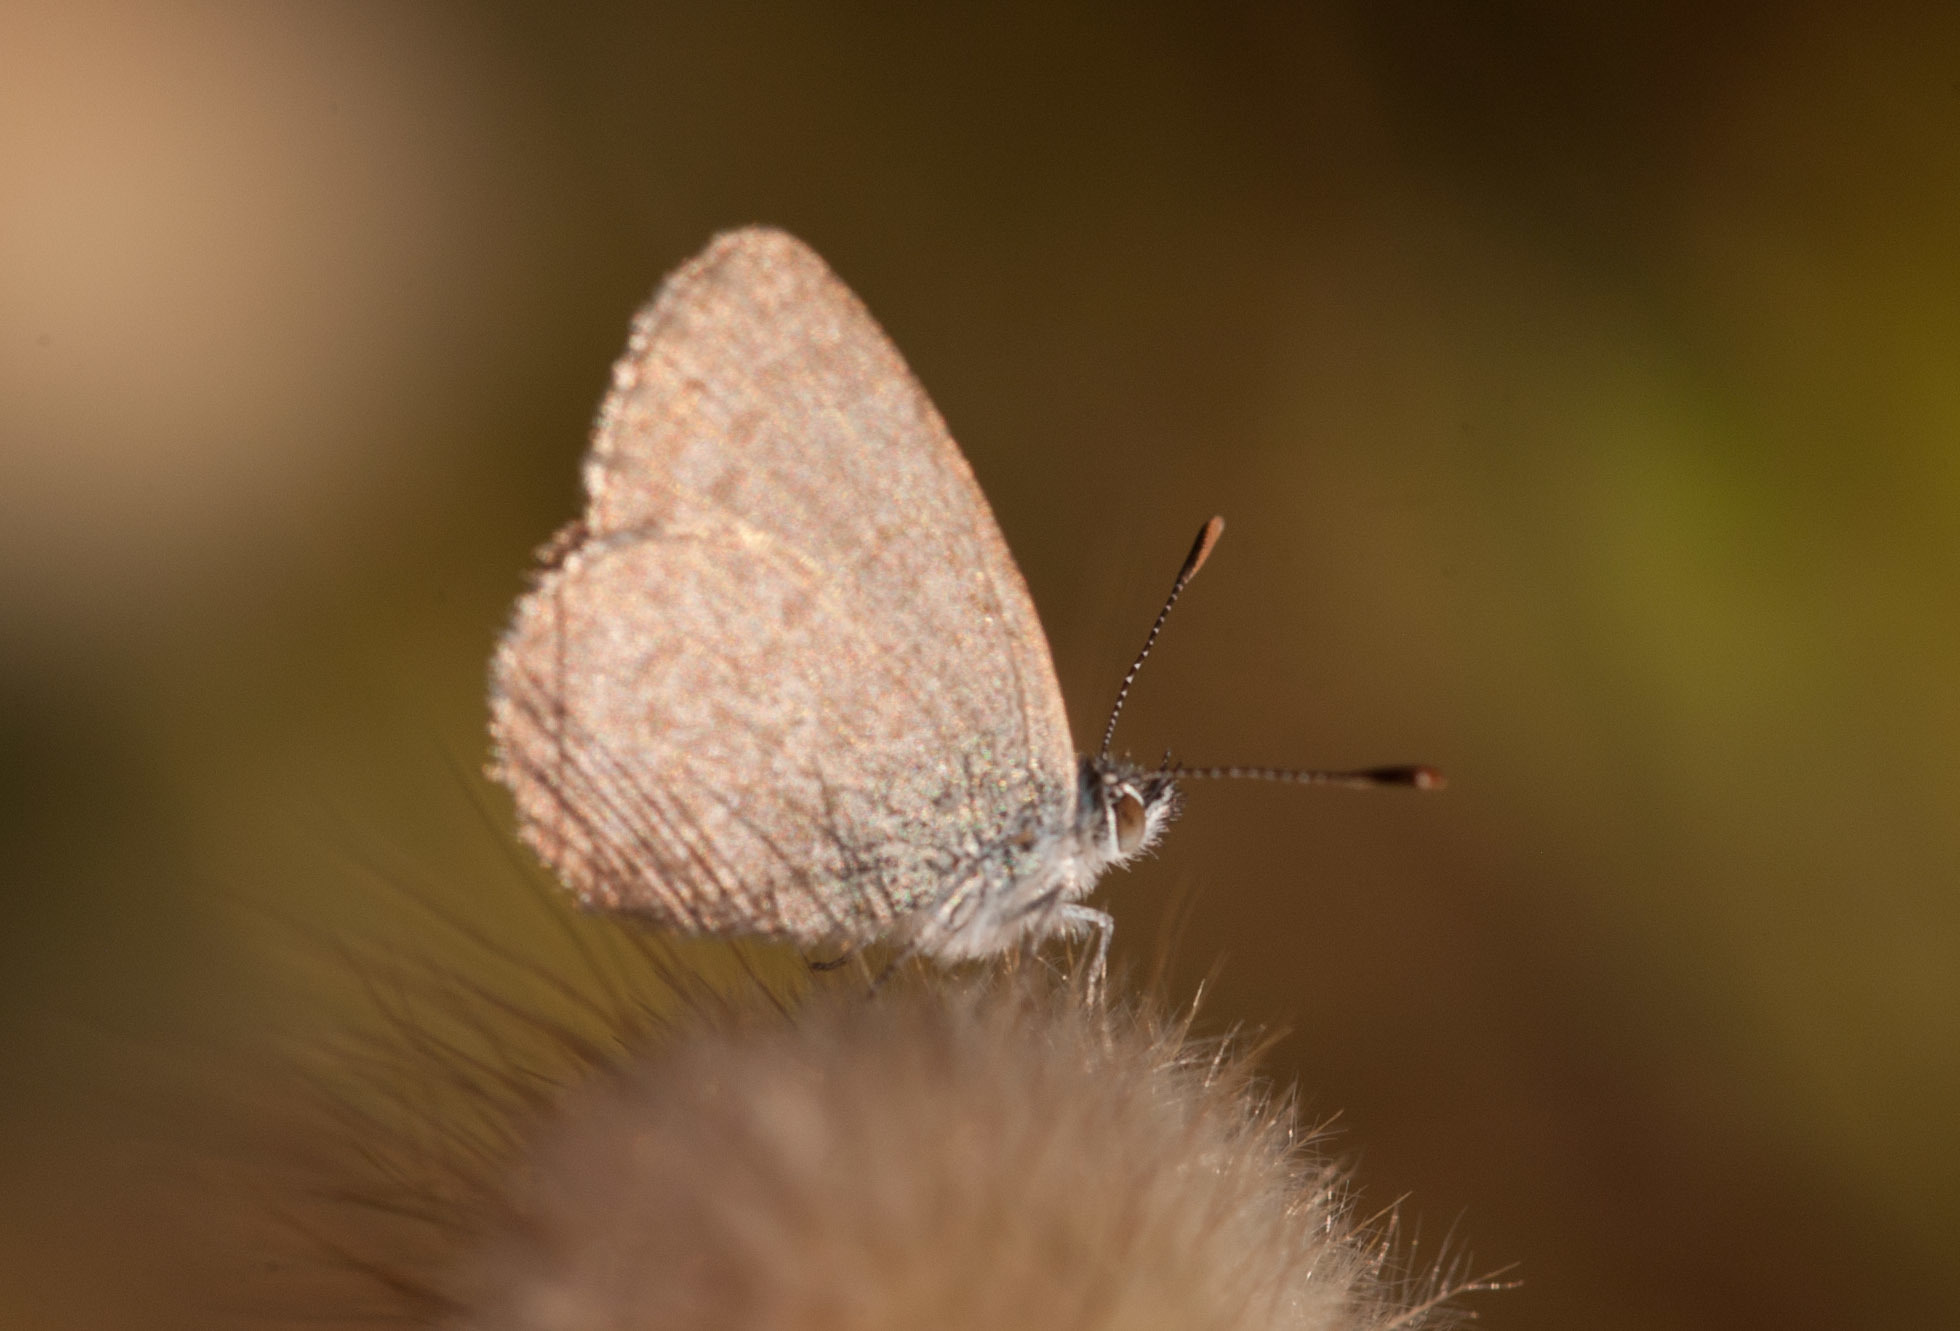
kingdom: Animalia
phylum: Arthropoda
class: Insecta
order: Lepidoptera
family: Lycaenidae
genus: Zizina
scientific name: Zizina labradus
